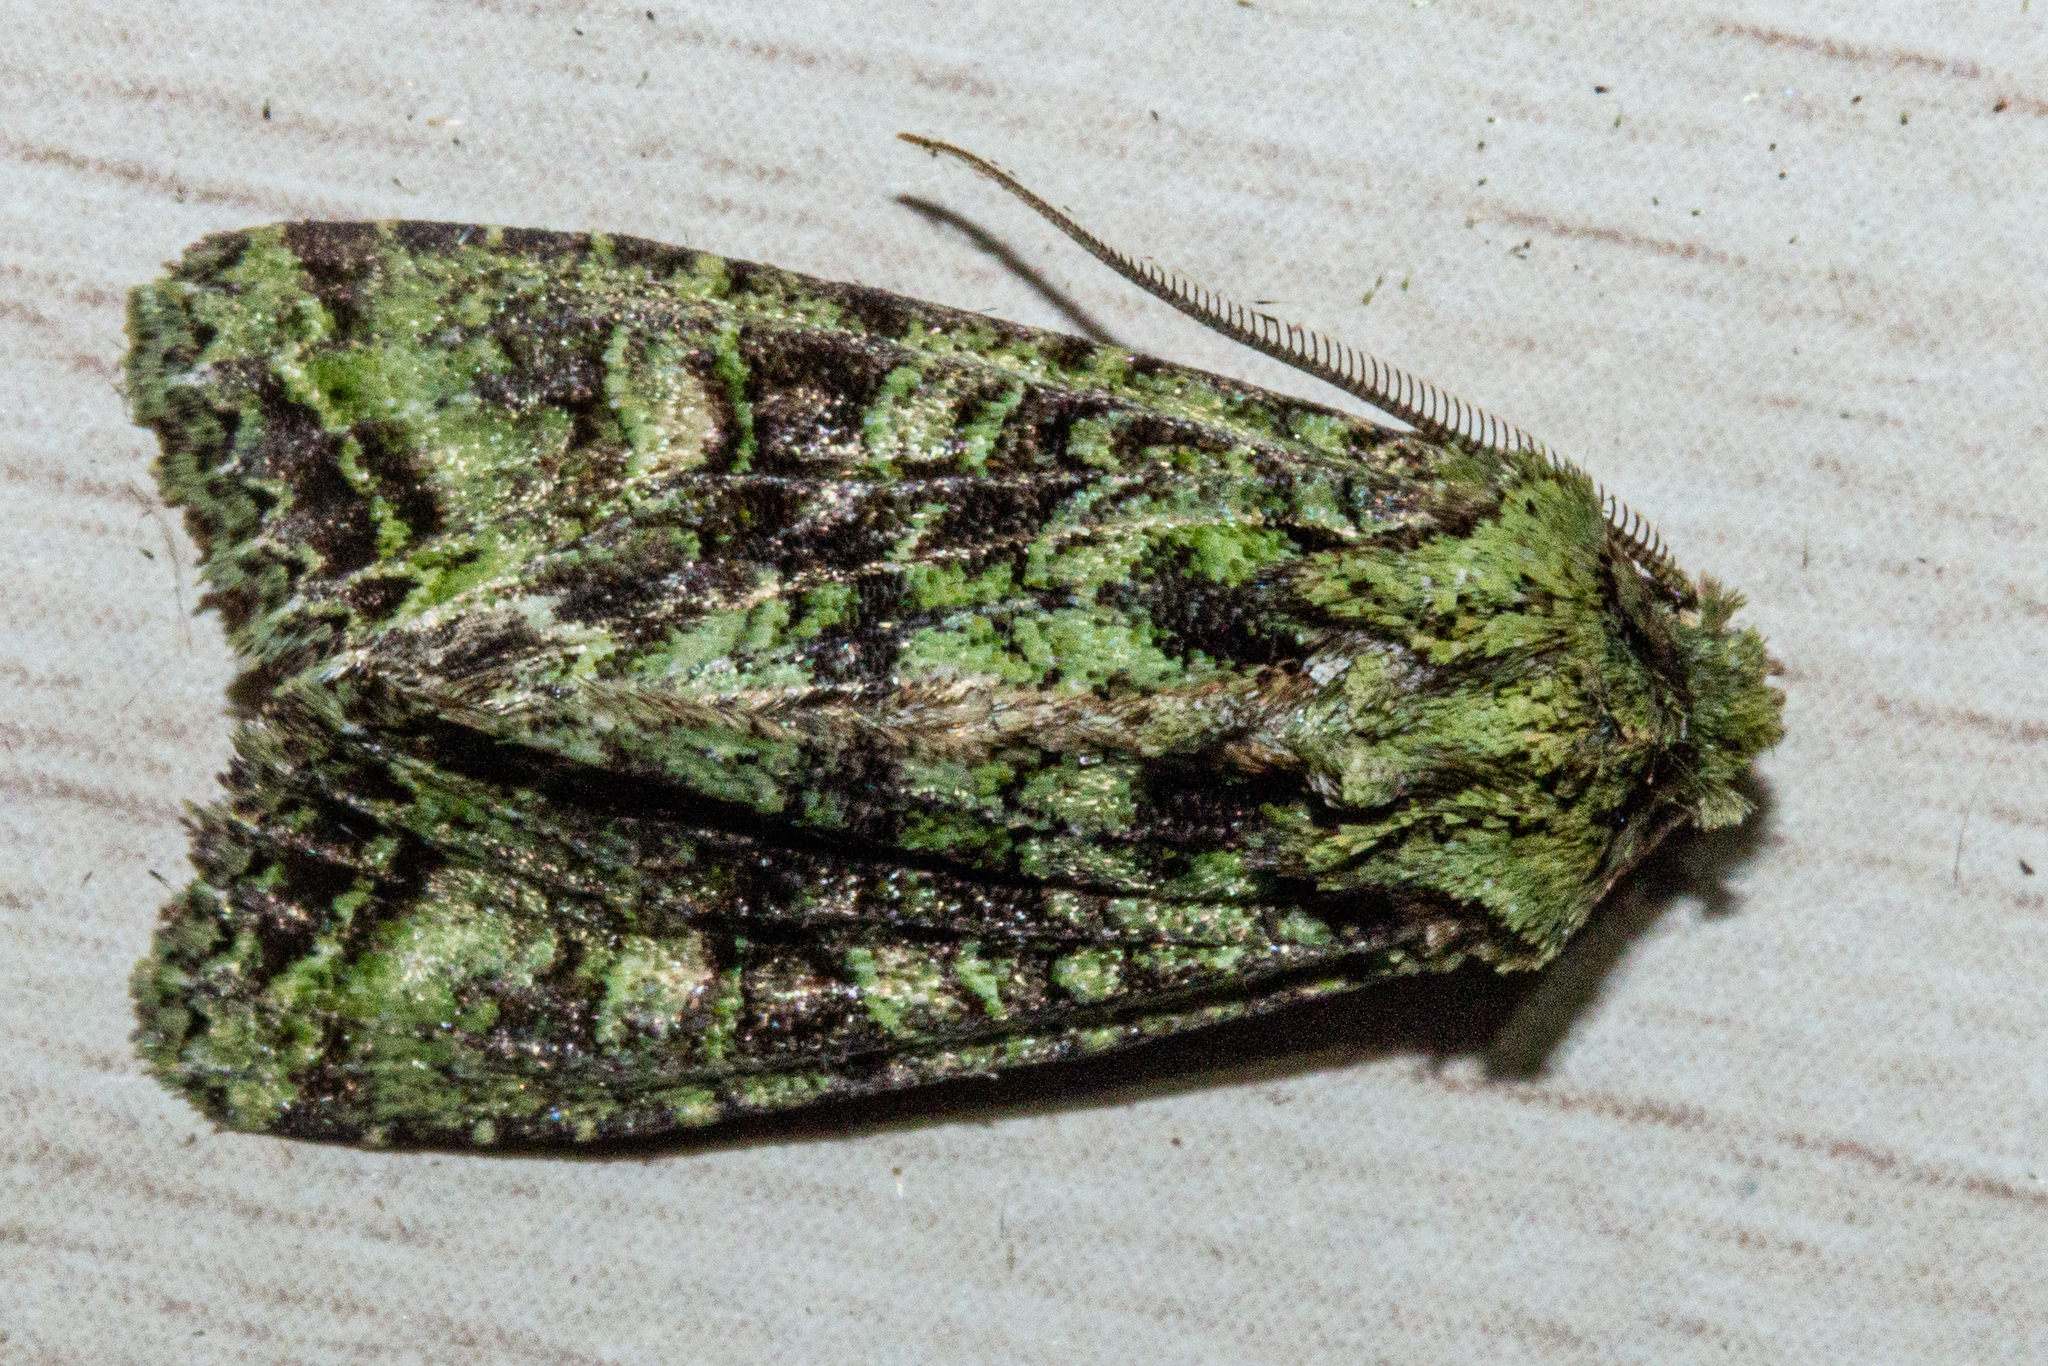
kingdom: Animalia
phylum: Arthropoda
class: Insecta
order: Lepidoptera
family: Noctuidae
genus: Ichneutica
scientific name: Ichneutica
